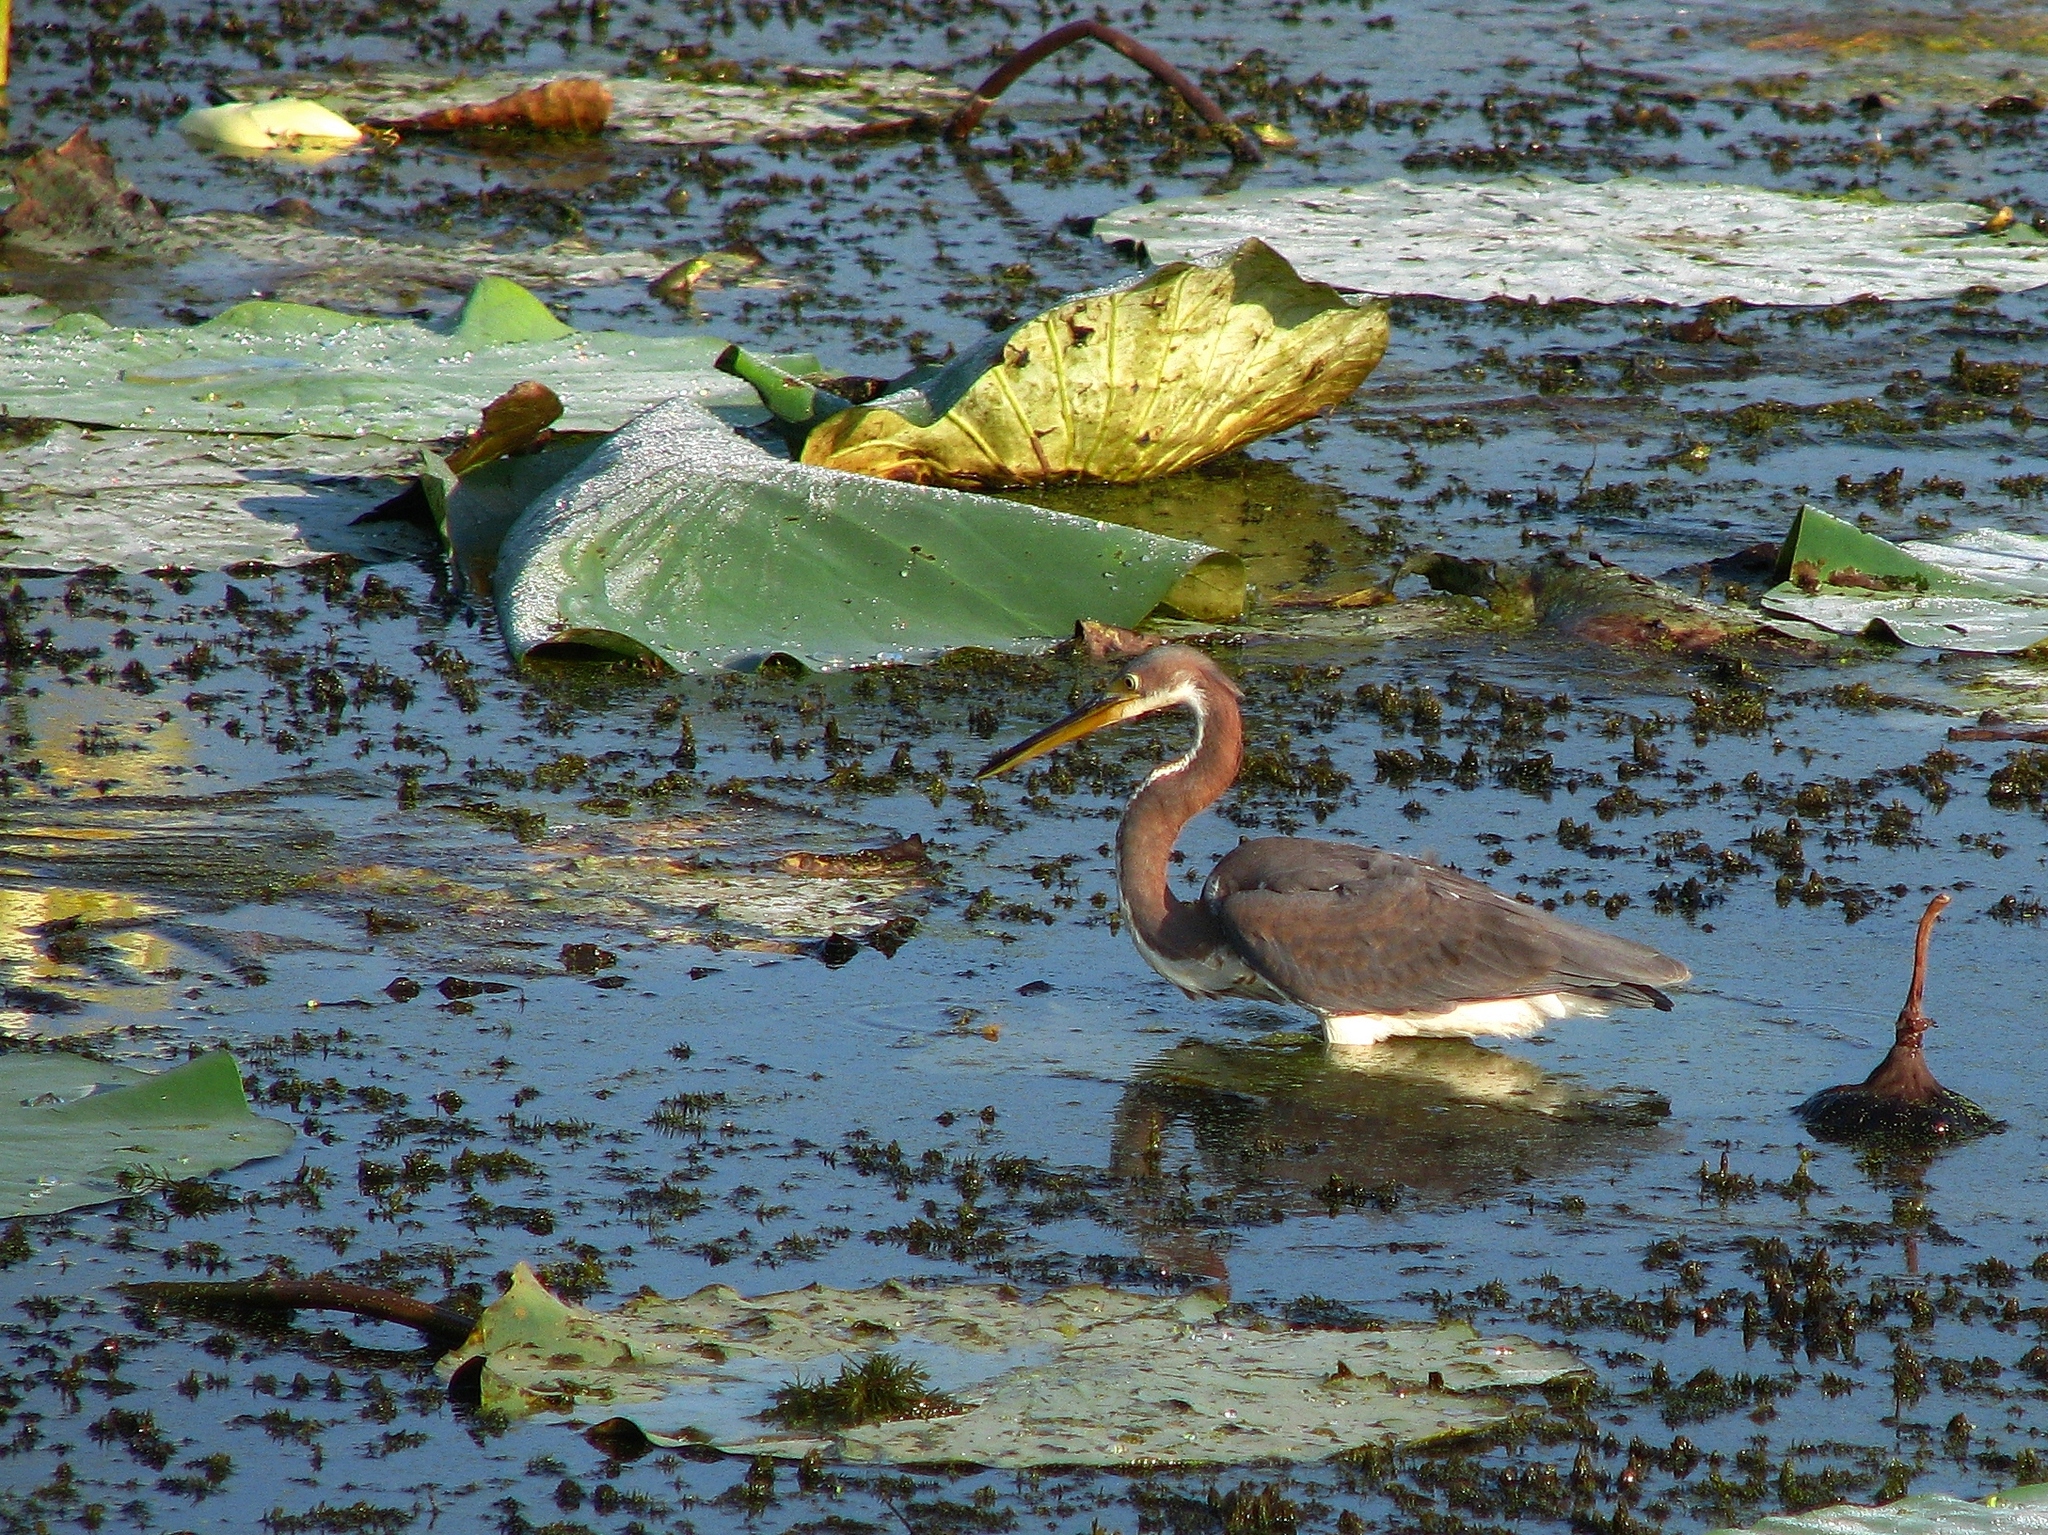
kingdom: Animalia
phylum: Chordata
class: Aves
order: Pelecaniformes
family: Ardeidae
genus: Egretta
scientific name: Egretta tricolor
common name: Tricolored heron
